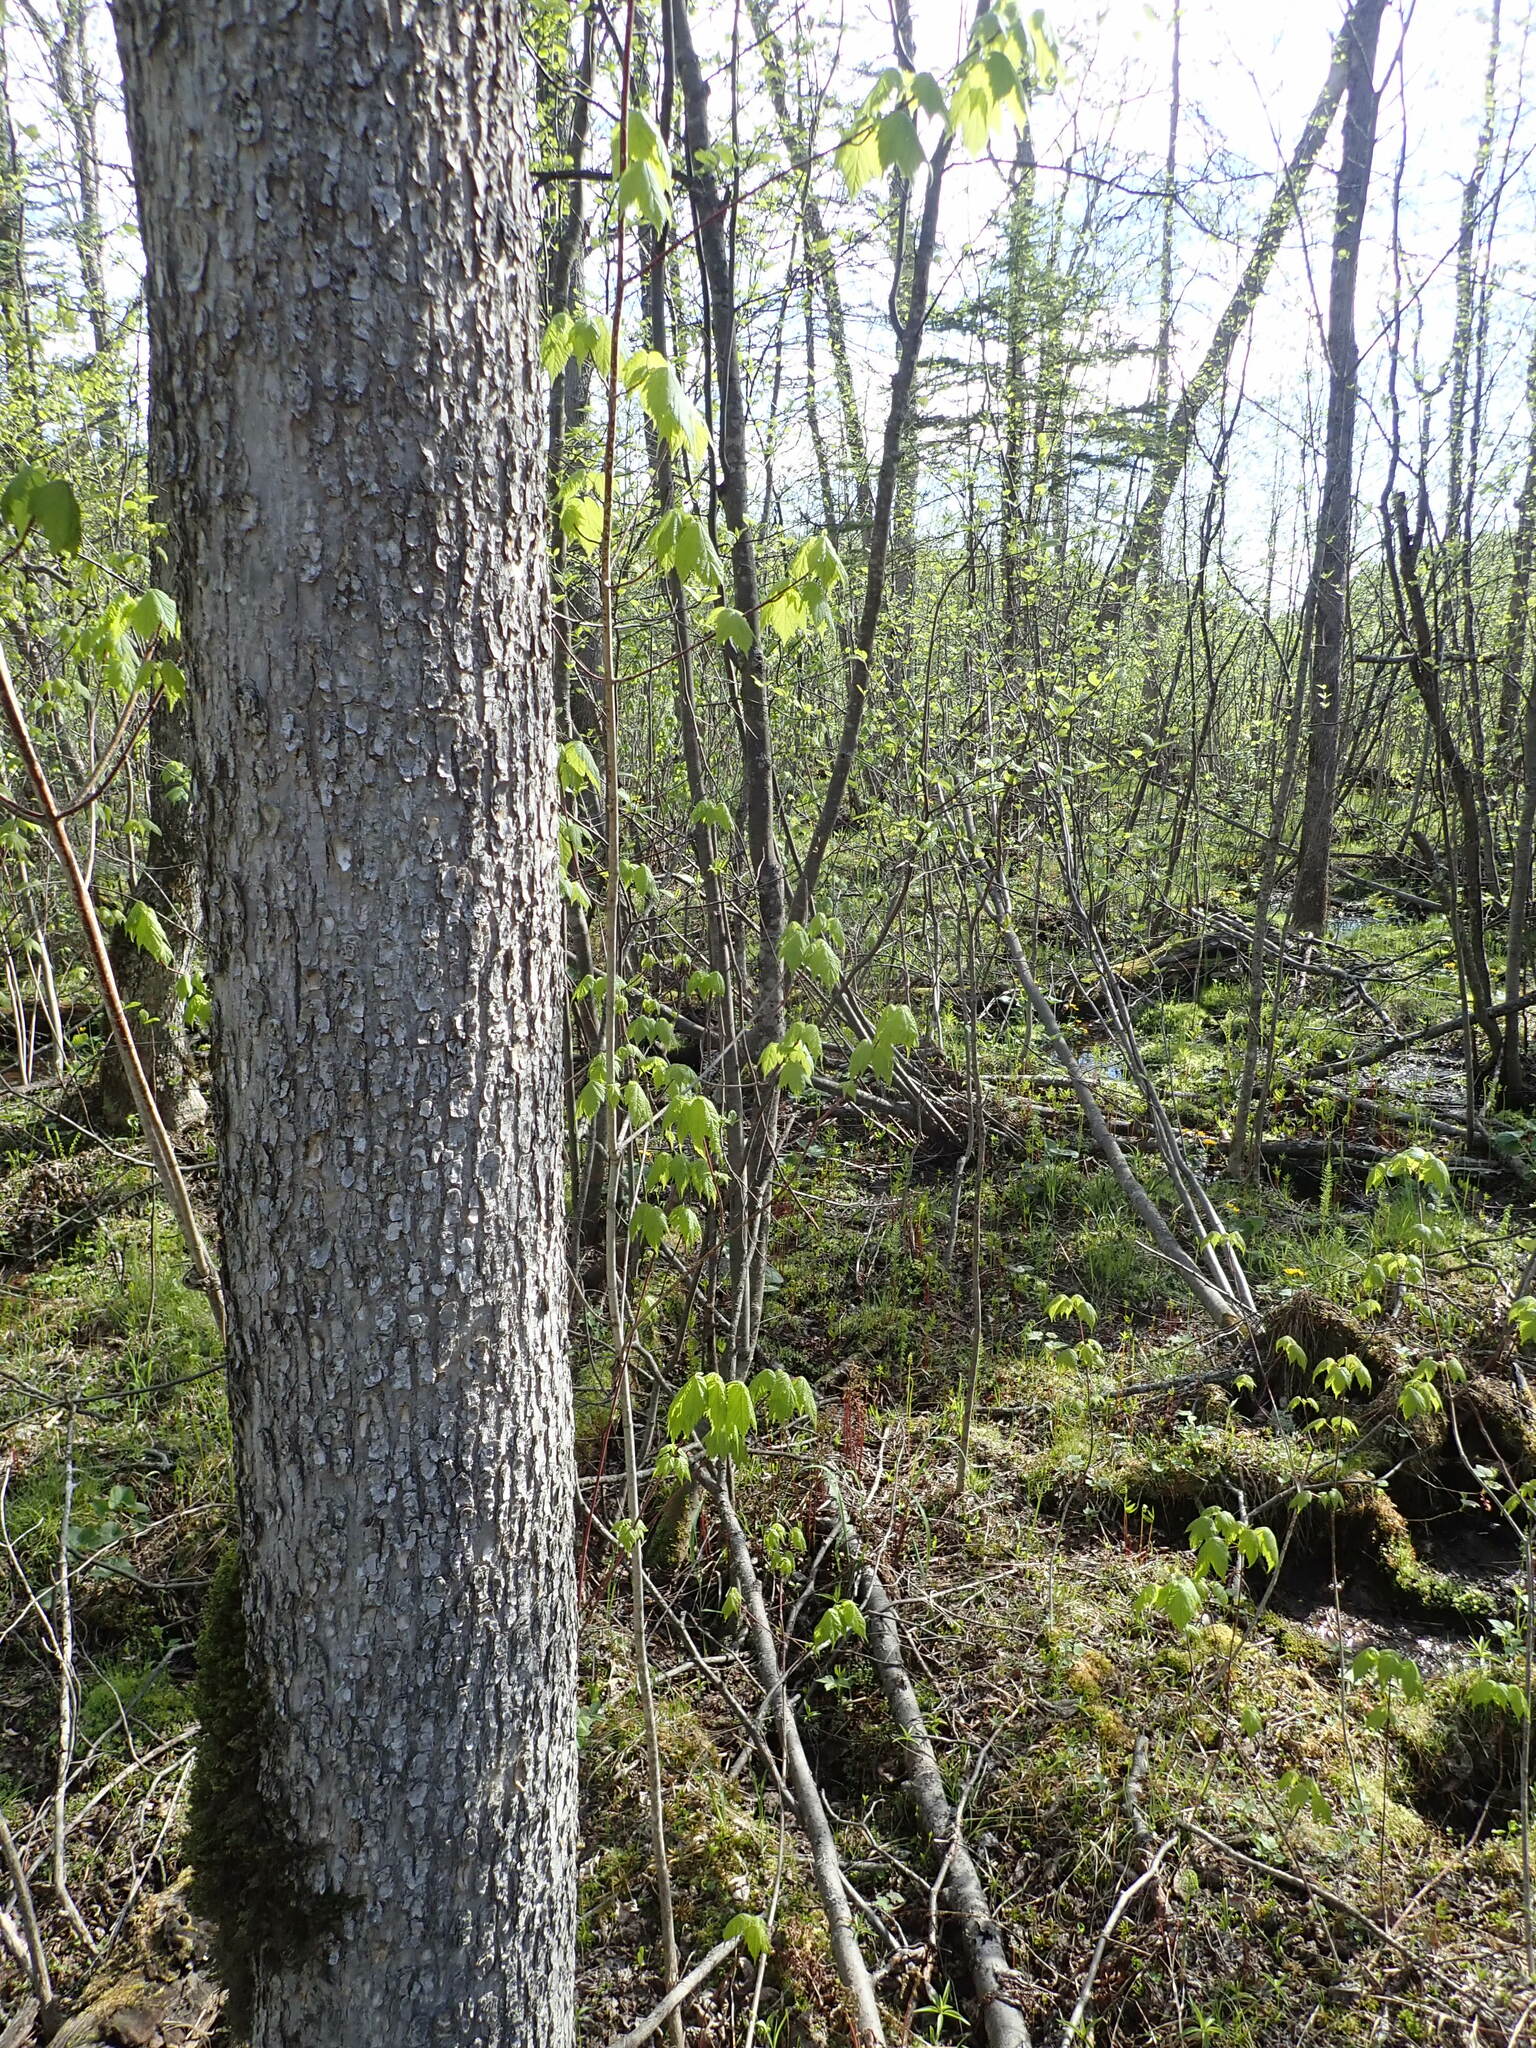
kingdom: Plantae
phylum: Tracheophyta
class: Magnoliopsida
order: Lamiales
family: Oleaceae
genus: Fraxinus
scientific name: Fraxinus nigra
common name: Black ash
